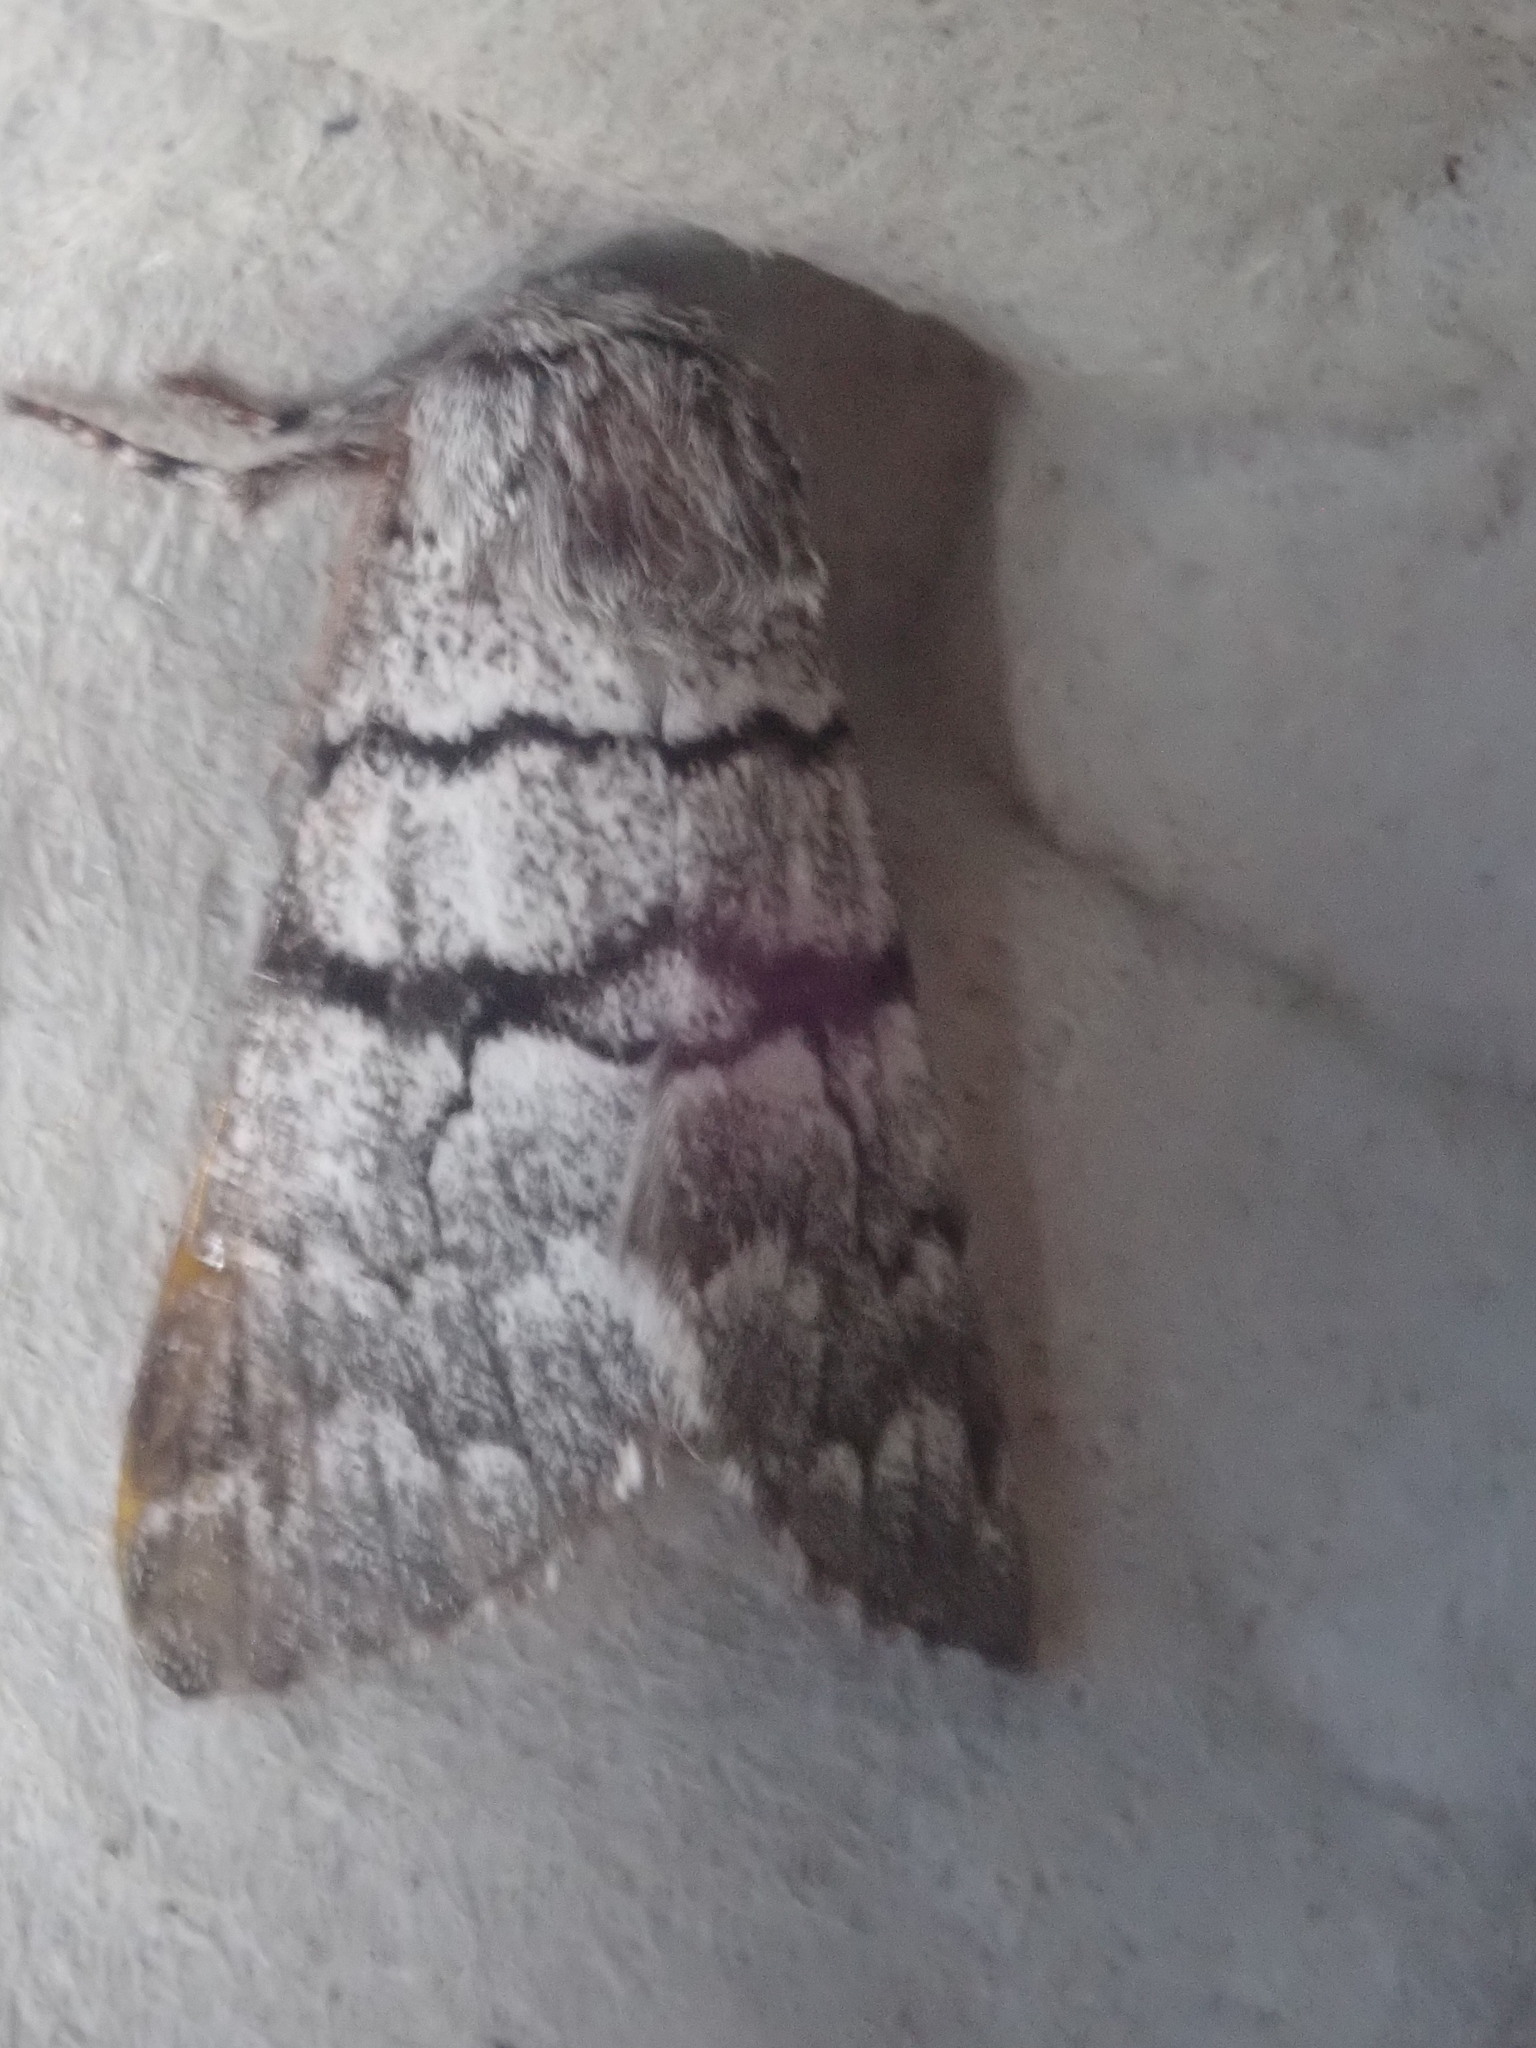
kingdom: Animalia
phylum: Arthropoda
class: Insecta
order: Lepidoptera
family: Noctuidae
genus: Panthea
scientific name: Panthea furcilla
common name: Eastern panthea moth
